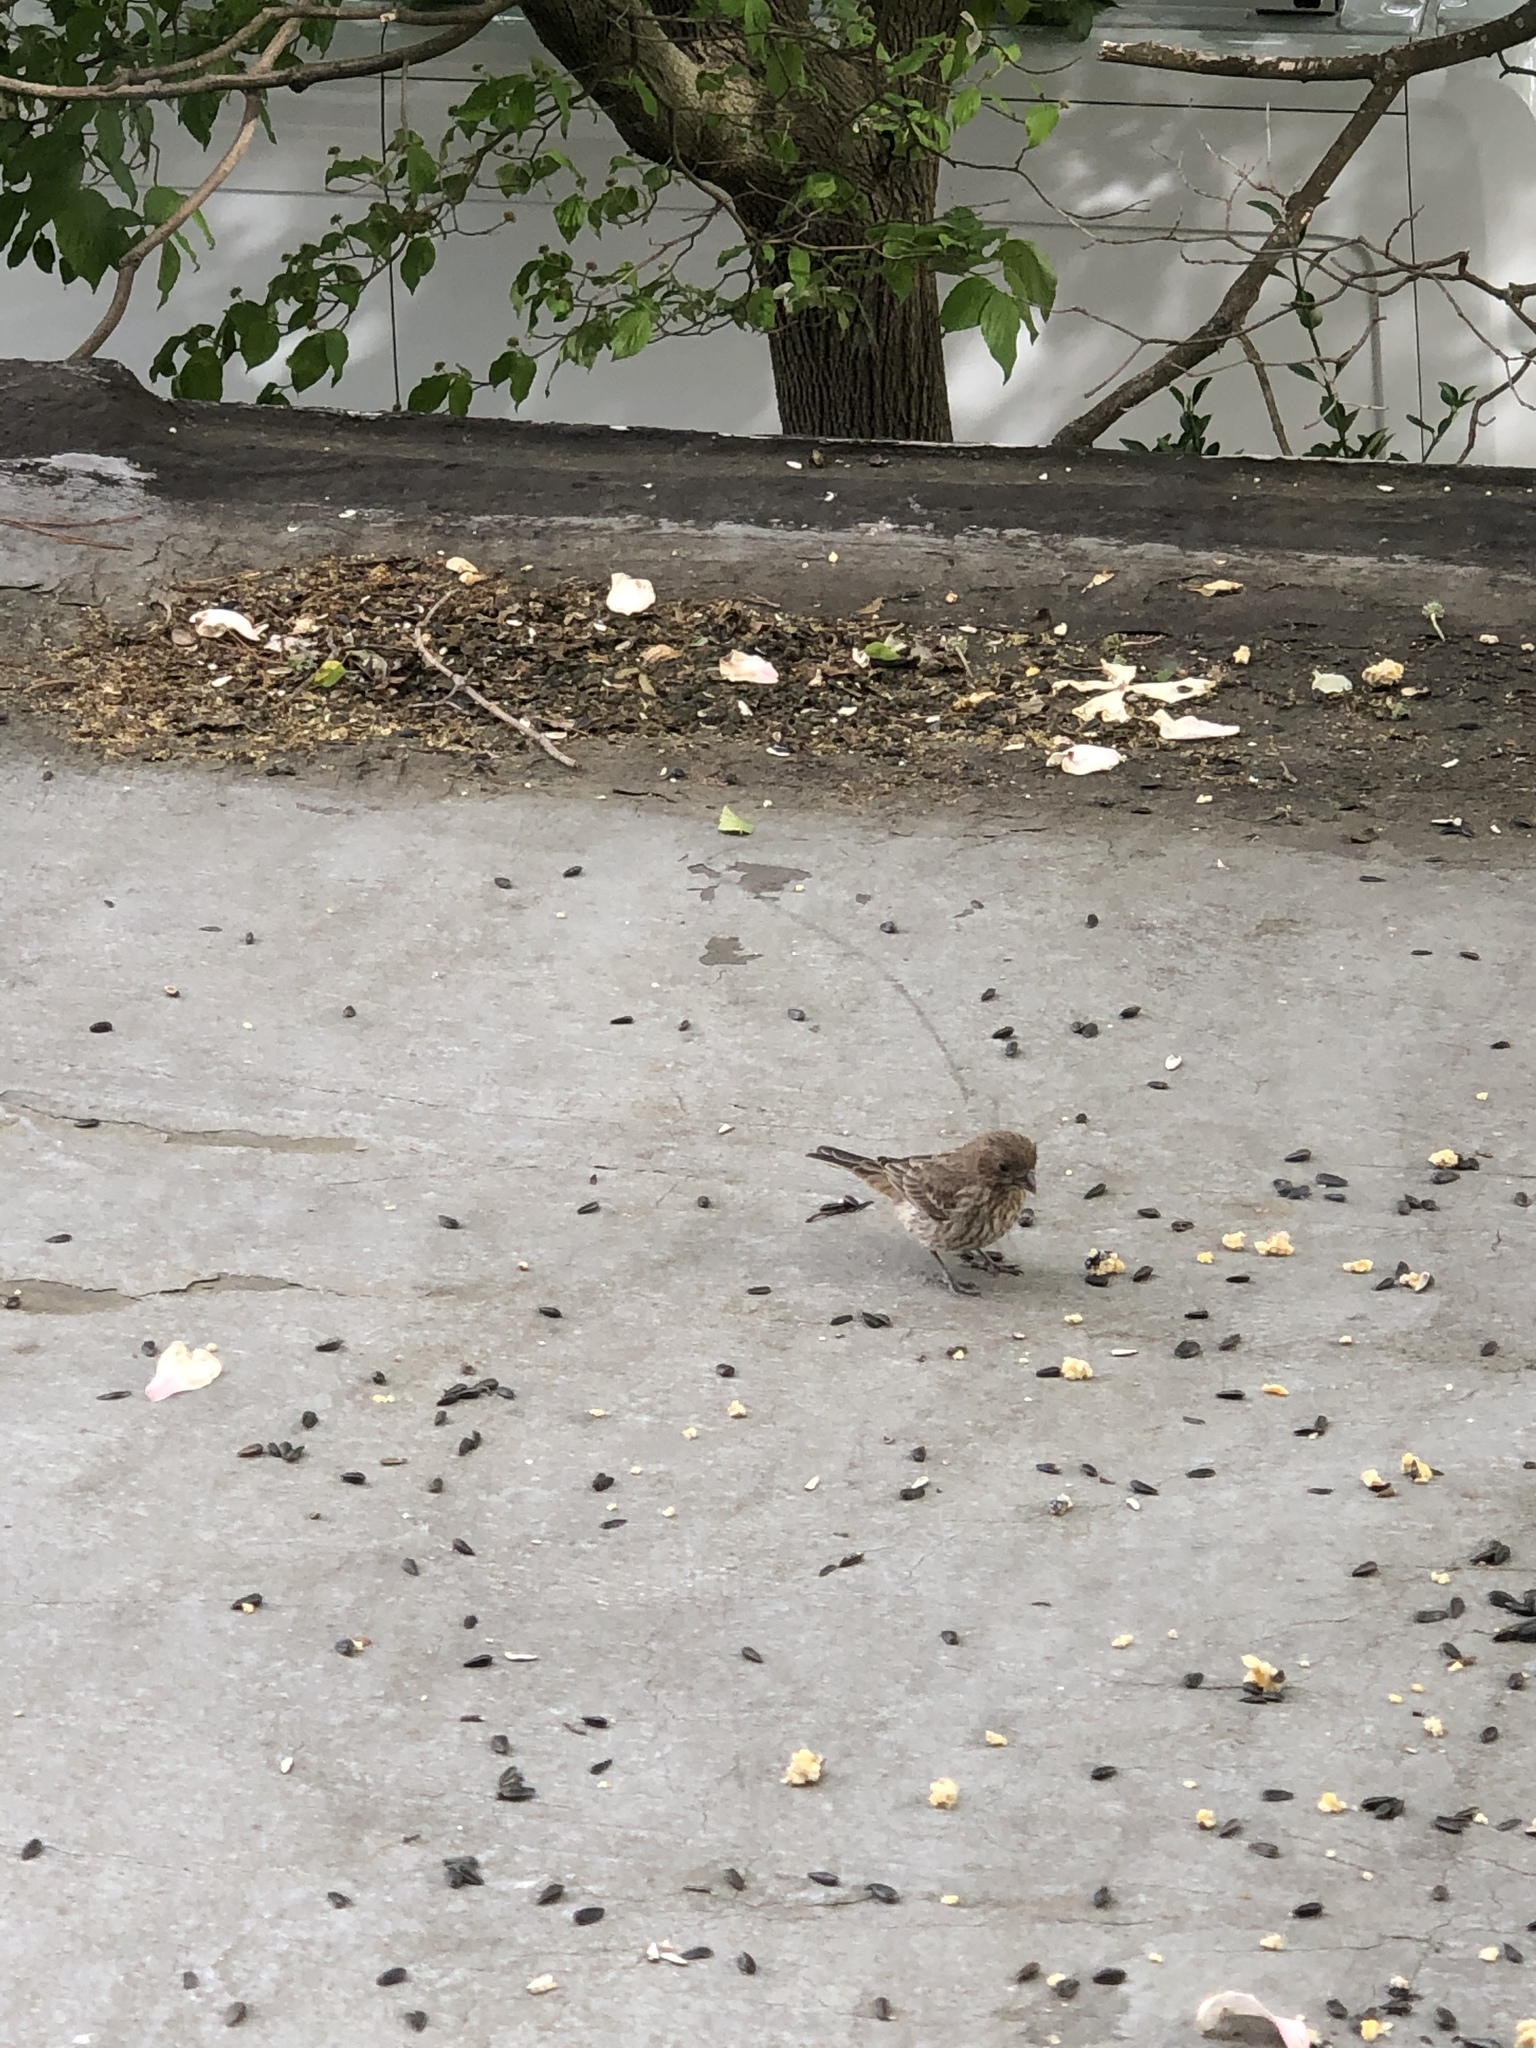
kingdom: Animalia
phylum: Chordata
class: Aves
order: Passeriformes
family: Fringillidae
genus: Haemorhous
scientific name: Haemorhous mexicanus
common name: House finch
